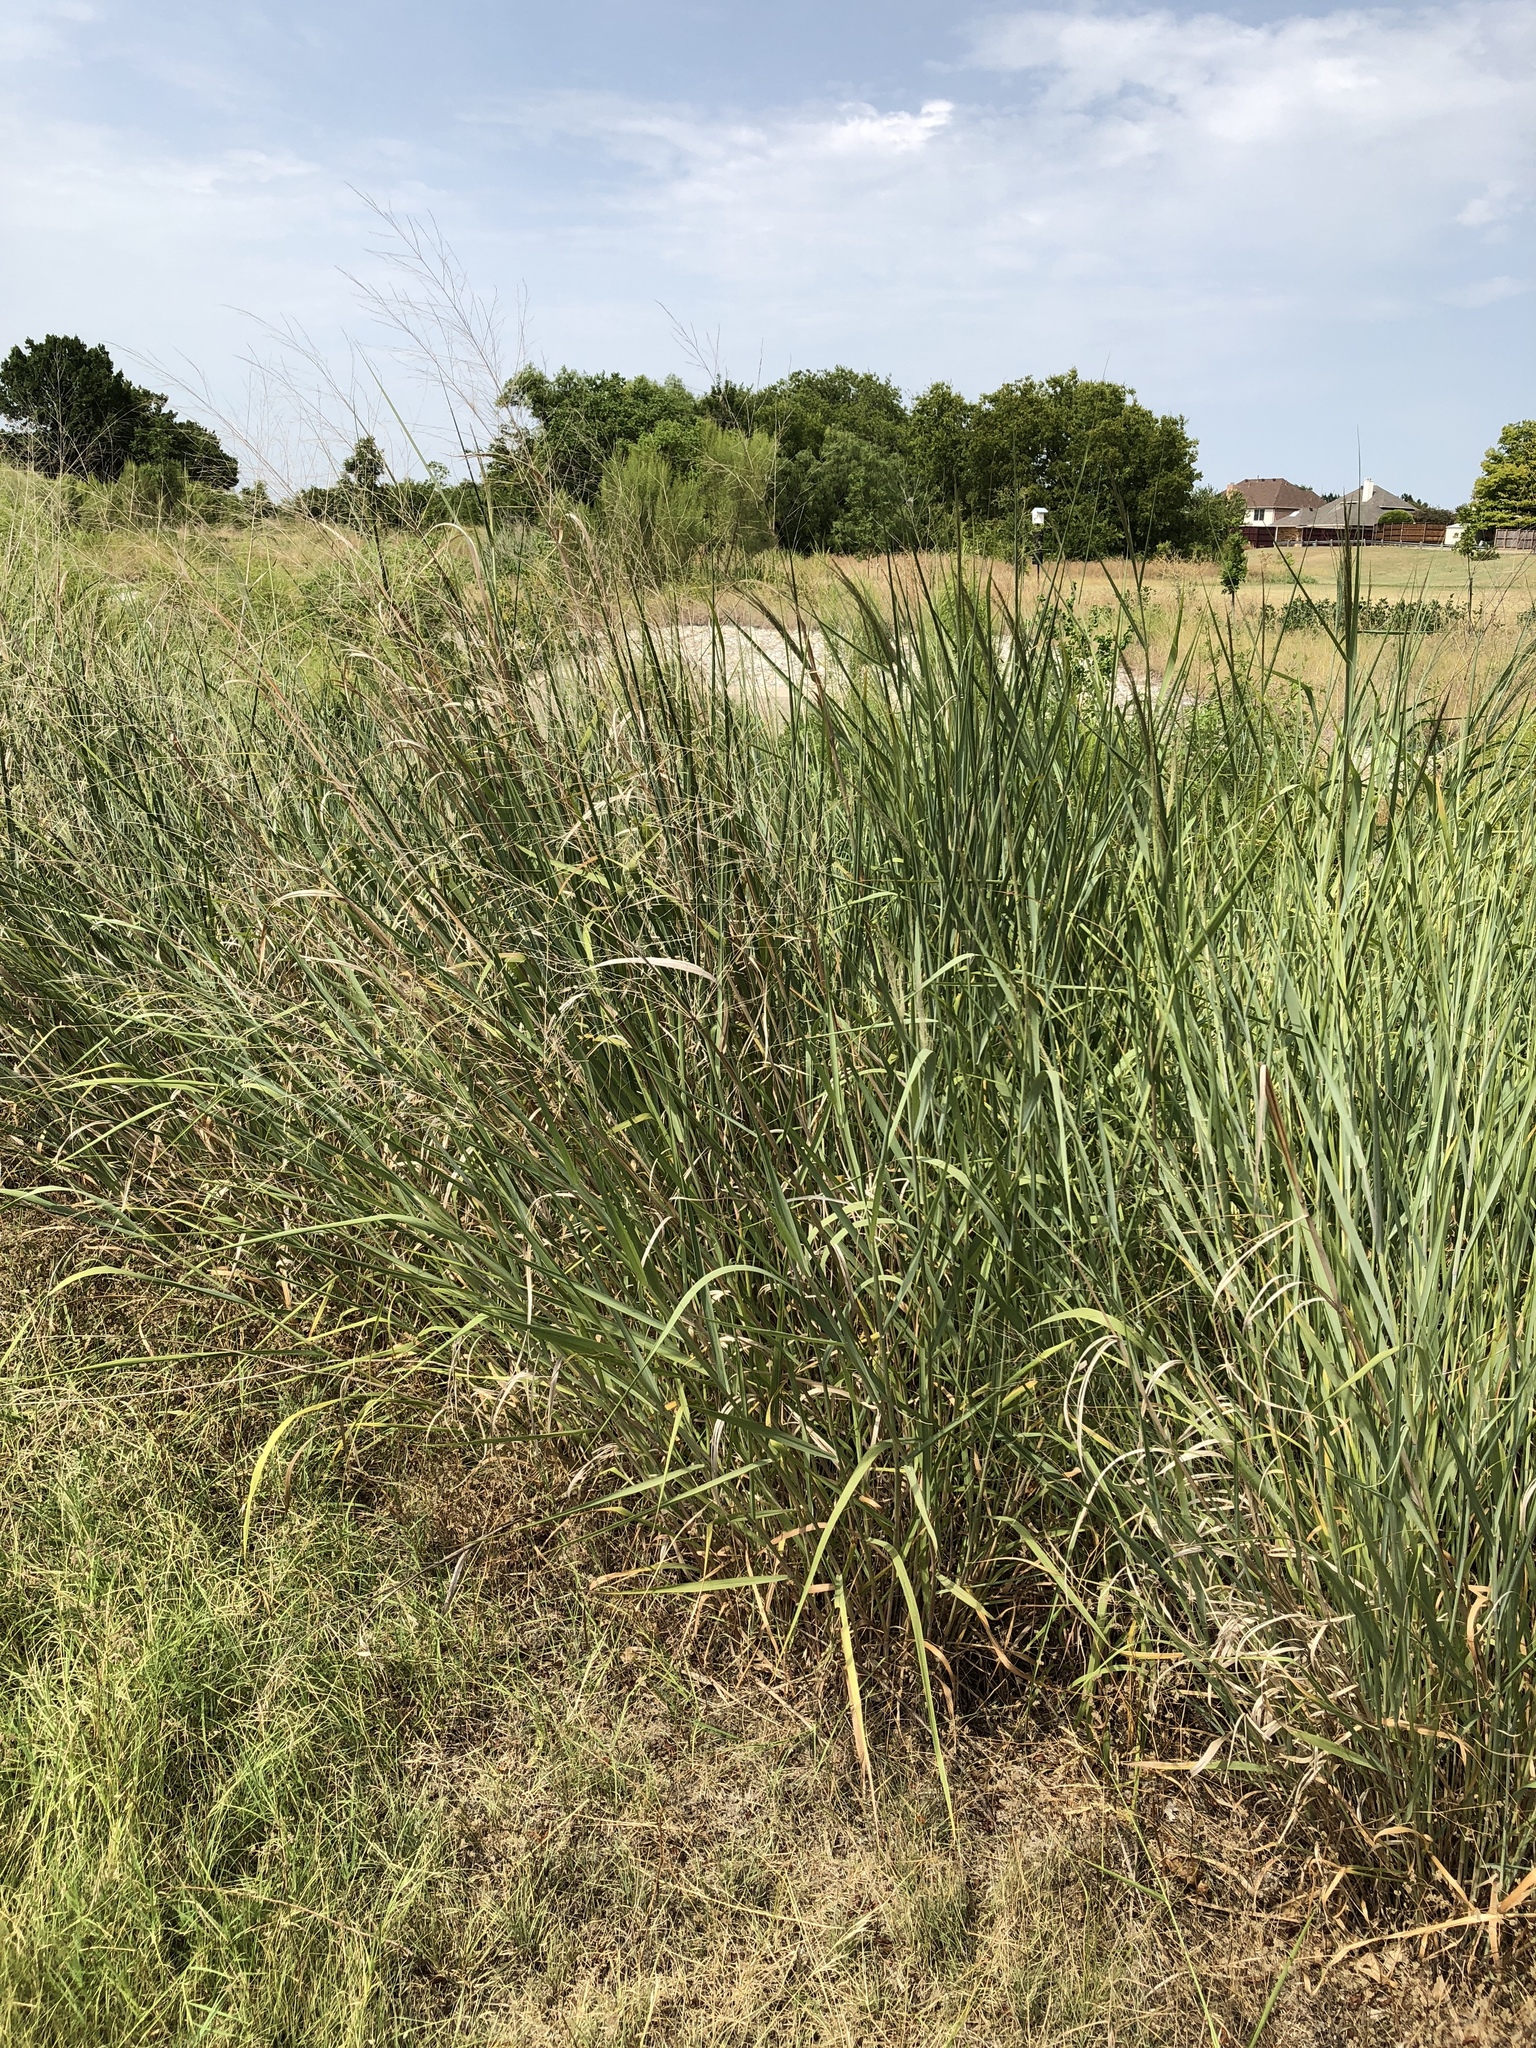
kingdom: Plantae
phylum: Tracheophyta
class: Liliopsida
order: Poales
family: Poaceae
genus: Panicum
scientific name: Panicum virgatum
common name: Switchgrass
